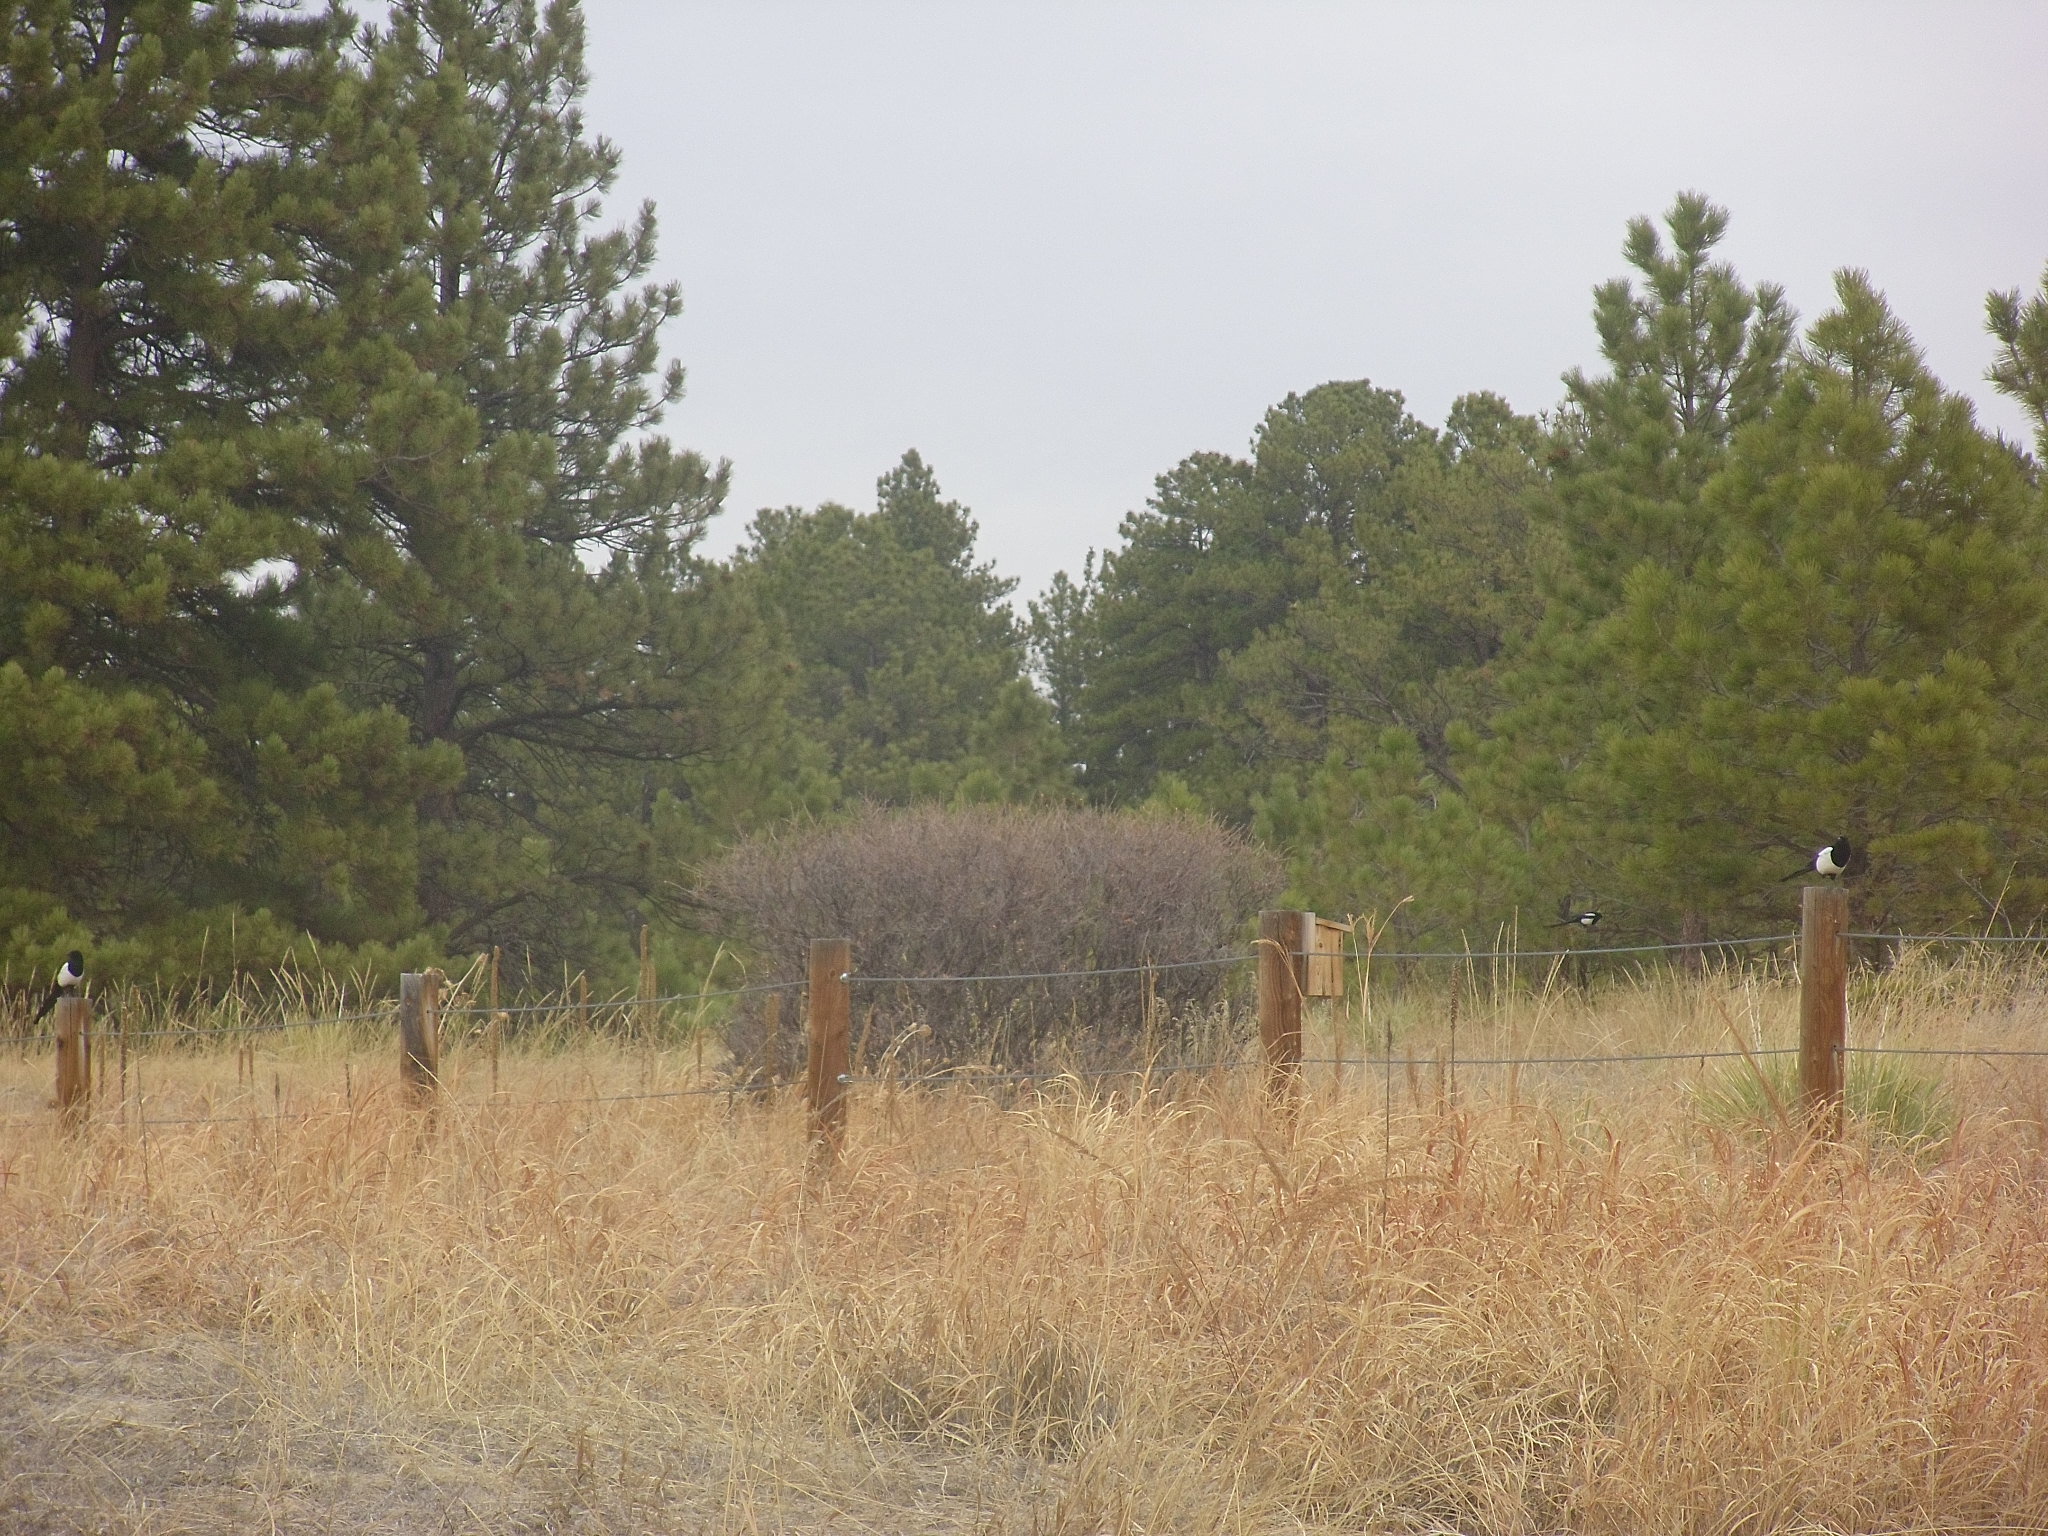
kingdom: Animalia
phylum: Chordata
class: Aves
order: Passeriformes
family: Corvidae
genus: Pica
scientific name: Pica hudsonia
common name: Black-billed magpie
